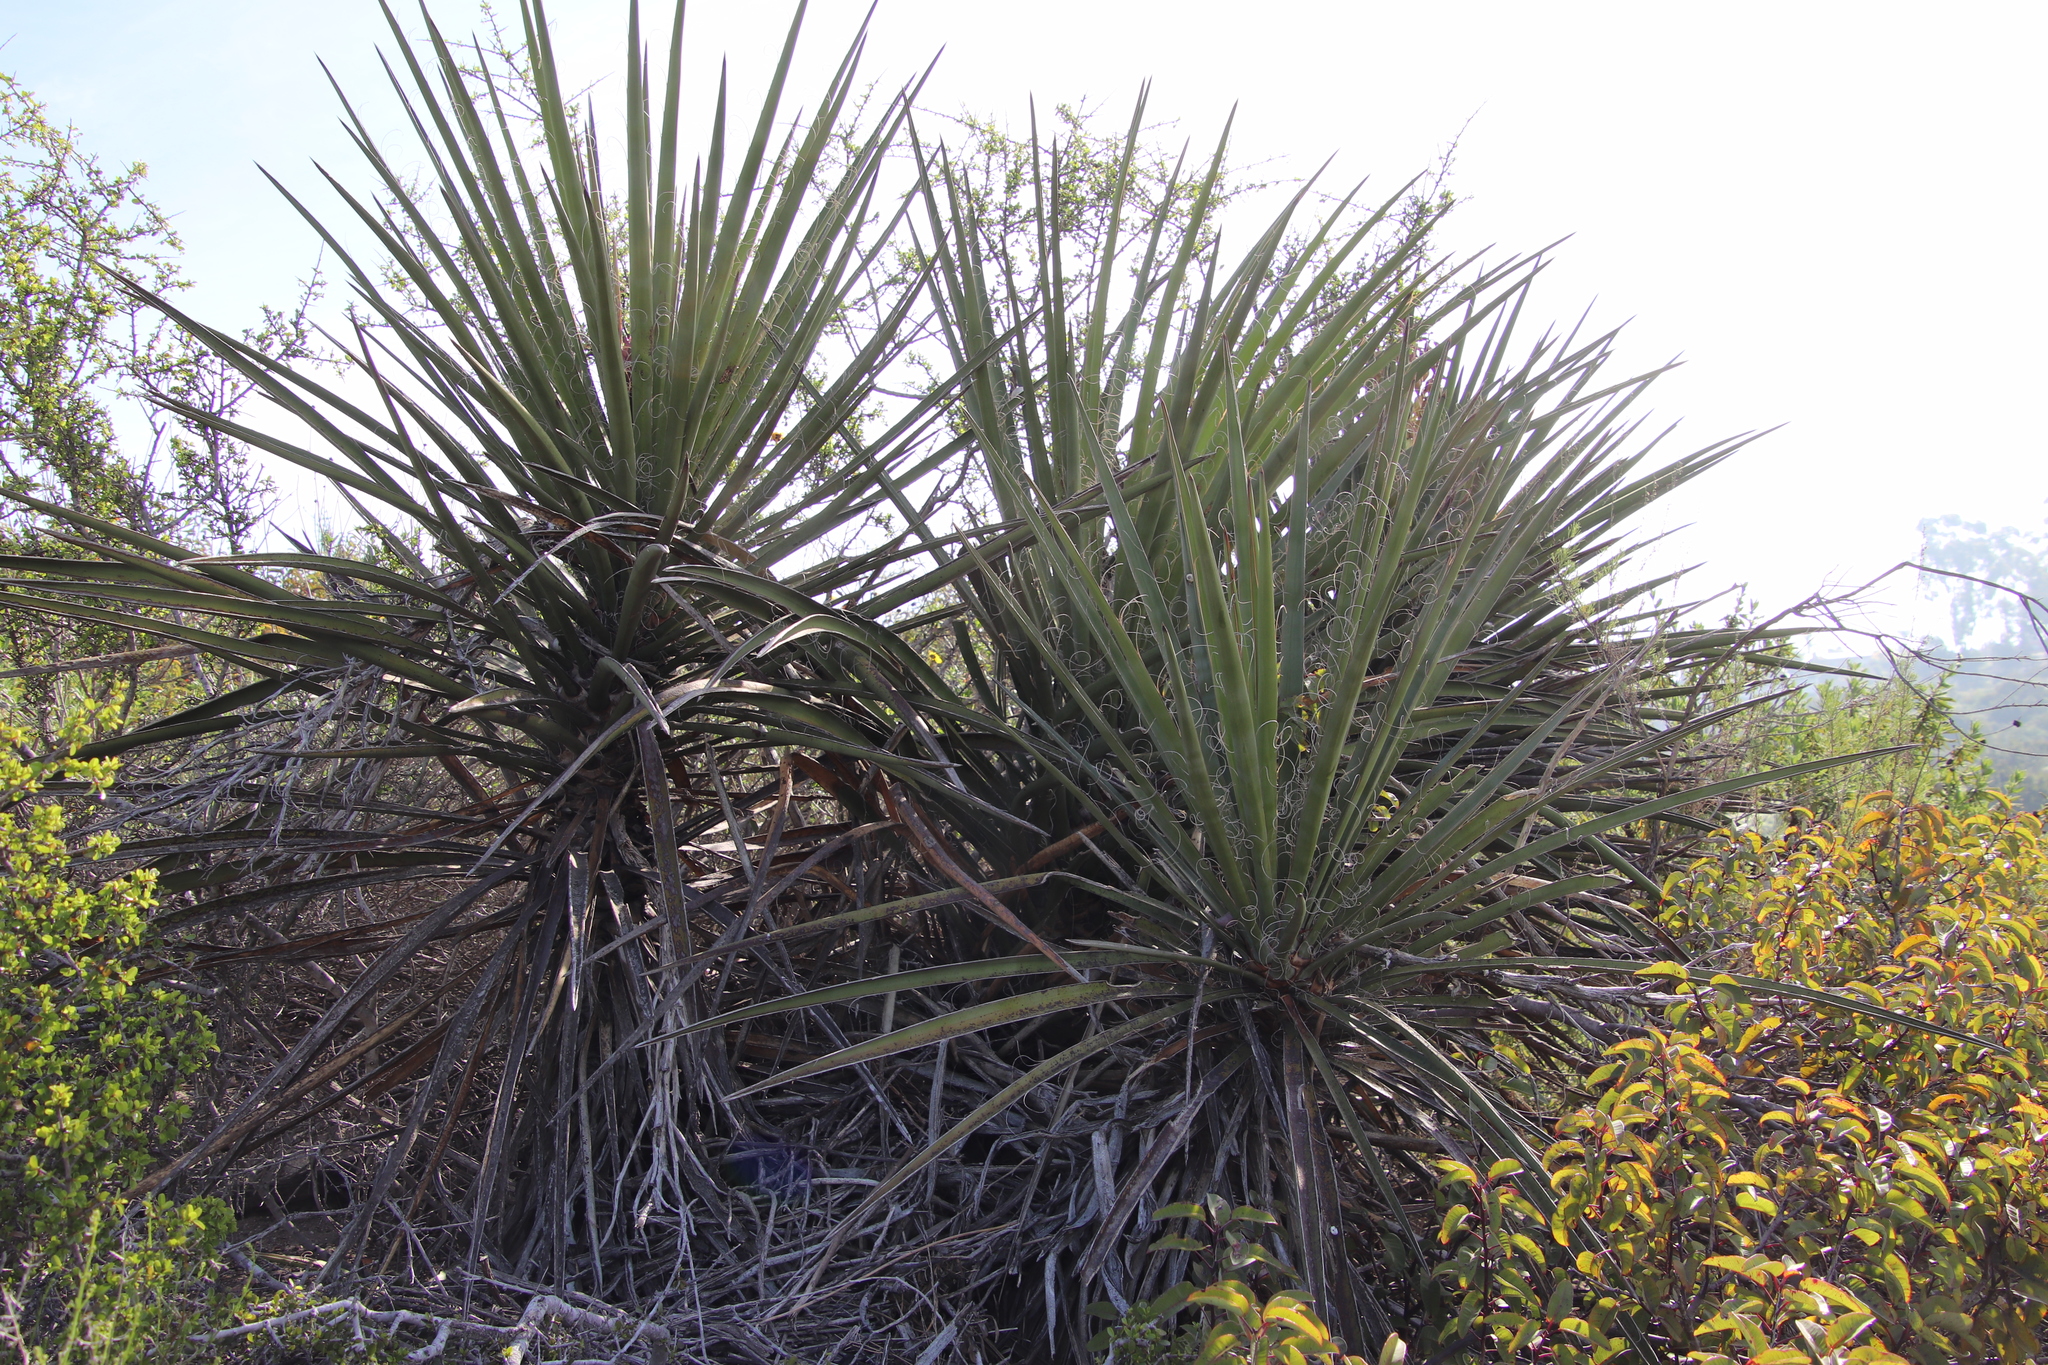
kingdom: Plantae
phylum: Tracheophyta
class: Liliopsida
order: Asparagales
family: Asparagaceae
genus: Yucca
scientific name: Yucca schidigera
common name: Mojave yucca
